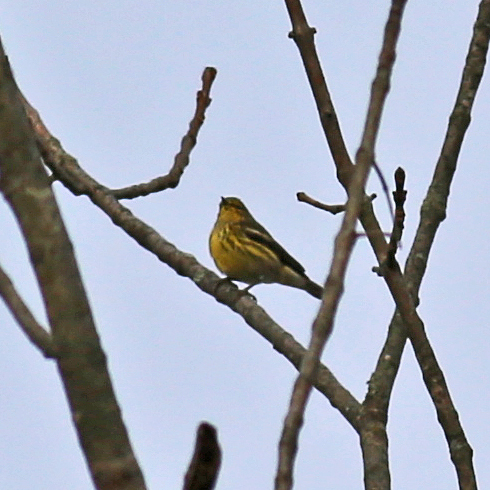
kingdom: Animalia
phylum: Chordata
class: Aves
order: Passeriformes
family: Parulidae
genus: Setophaga
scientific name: Setophaga tigrina
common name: Cape may warbler
